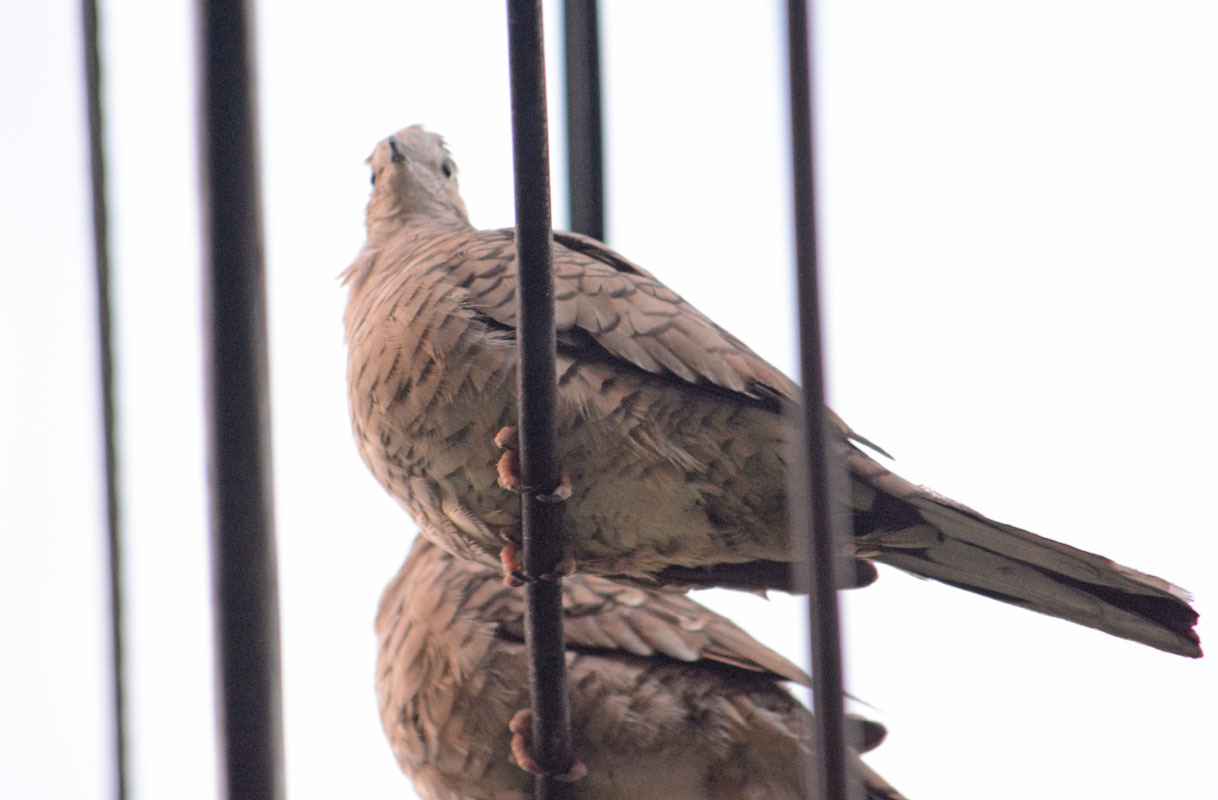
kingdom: Animalia
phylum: Chordata
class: Aves
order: Columbiformes
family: Columbidae
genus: Columbina
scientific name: Columbina inca
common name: Inca dove
